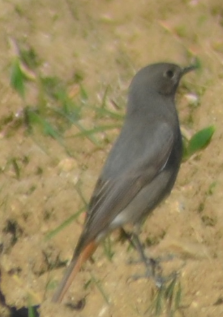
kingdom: Animalia
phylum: Chordata
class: Aves
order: Passeriformes
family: Muscicapidae
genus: Phoenicurus
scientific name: Phoenicurus ochruros
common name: Black redstart
